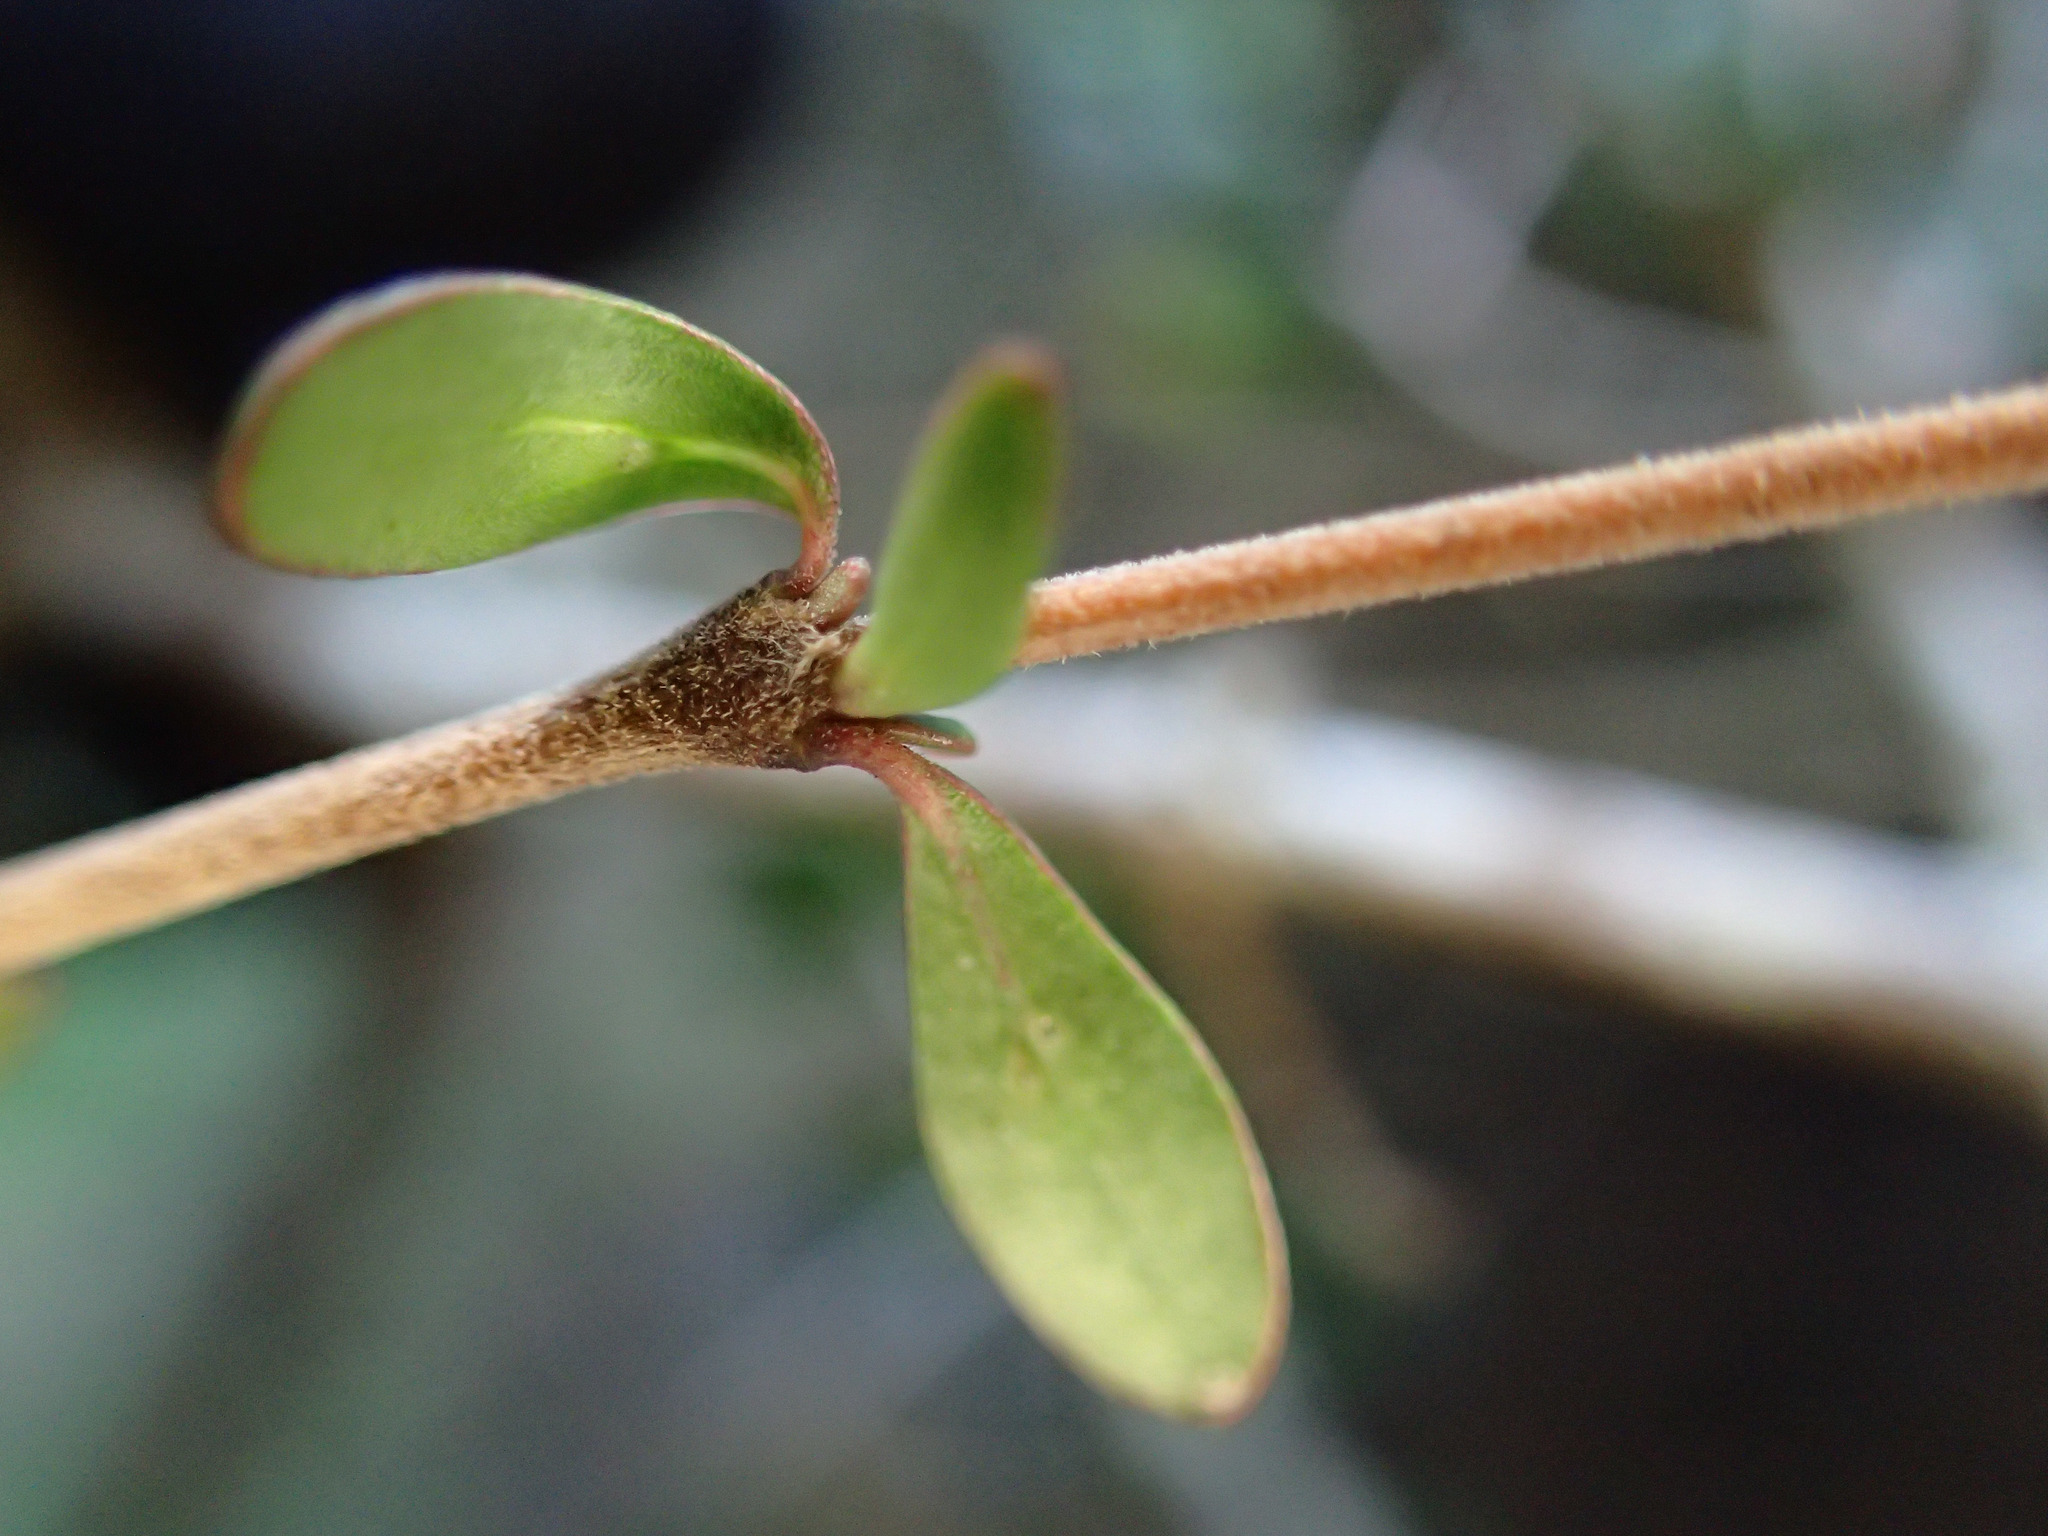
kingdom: Plantae
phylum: Tracheophyta
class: Magnoliopsida
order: Gentianales
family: Rubiaceae
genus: Coprosma
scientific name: Coprosma dumosa
